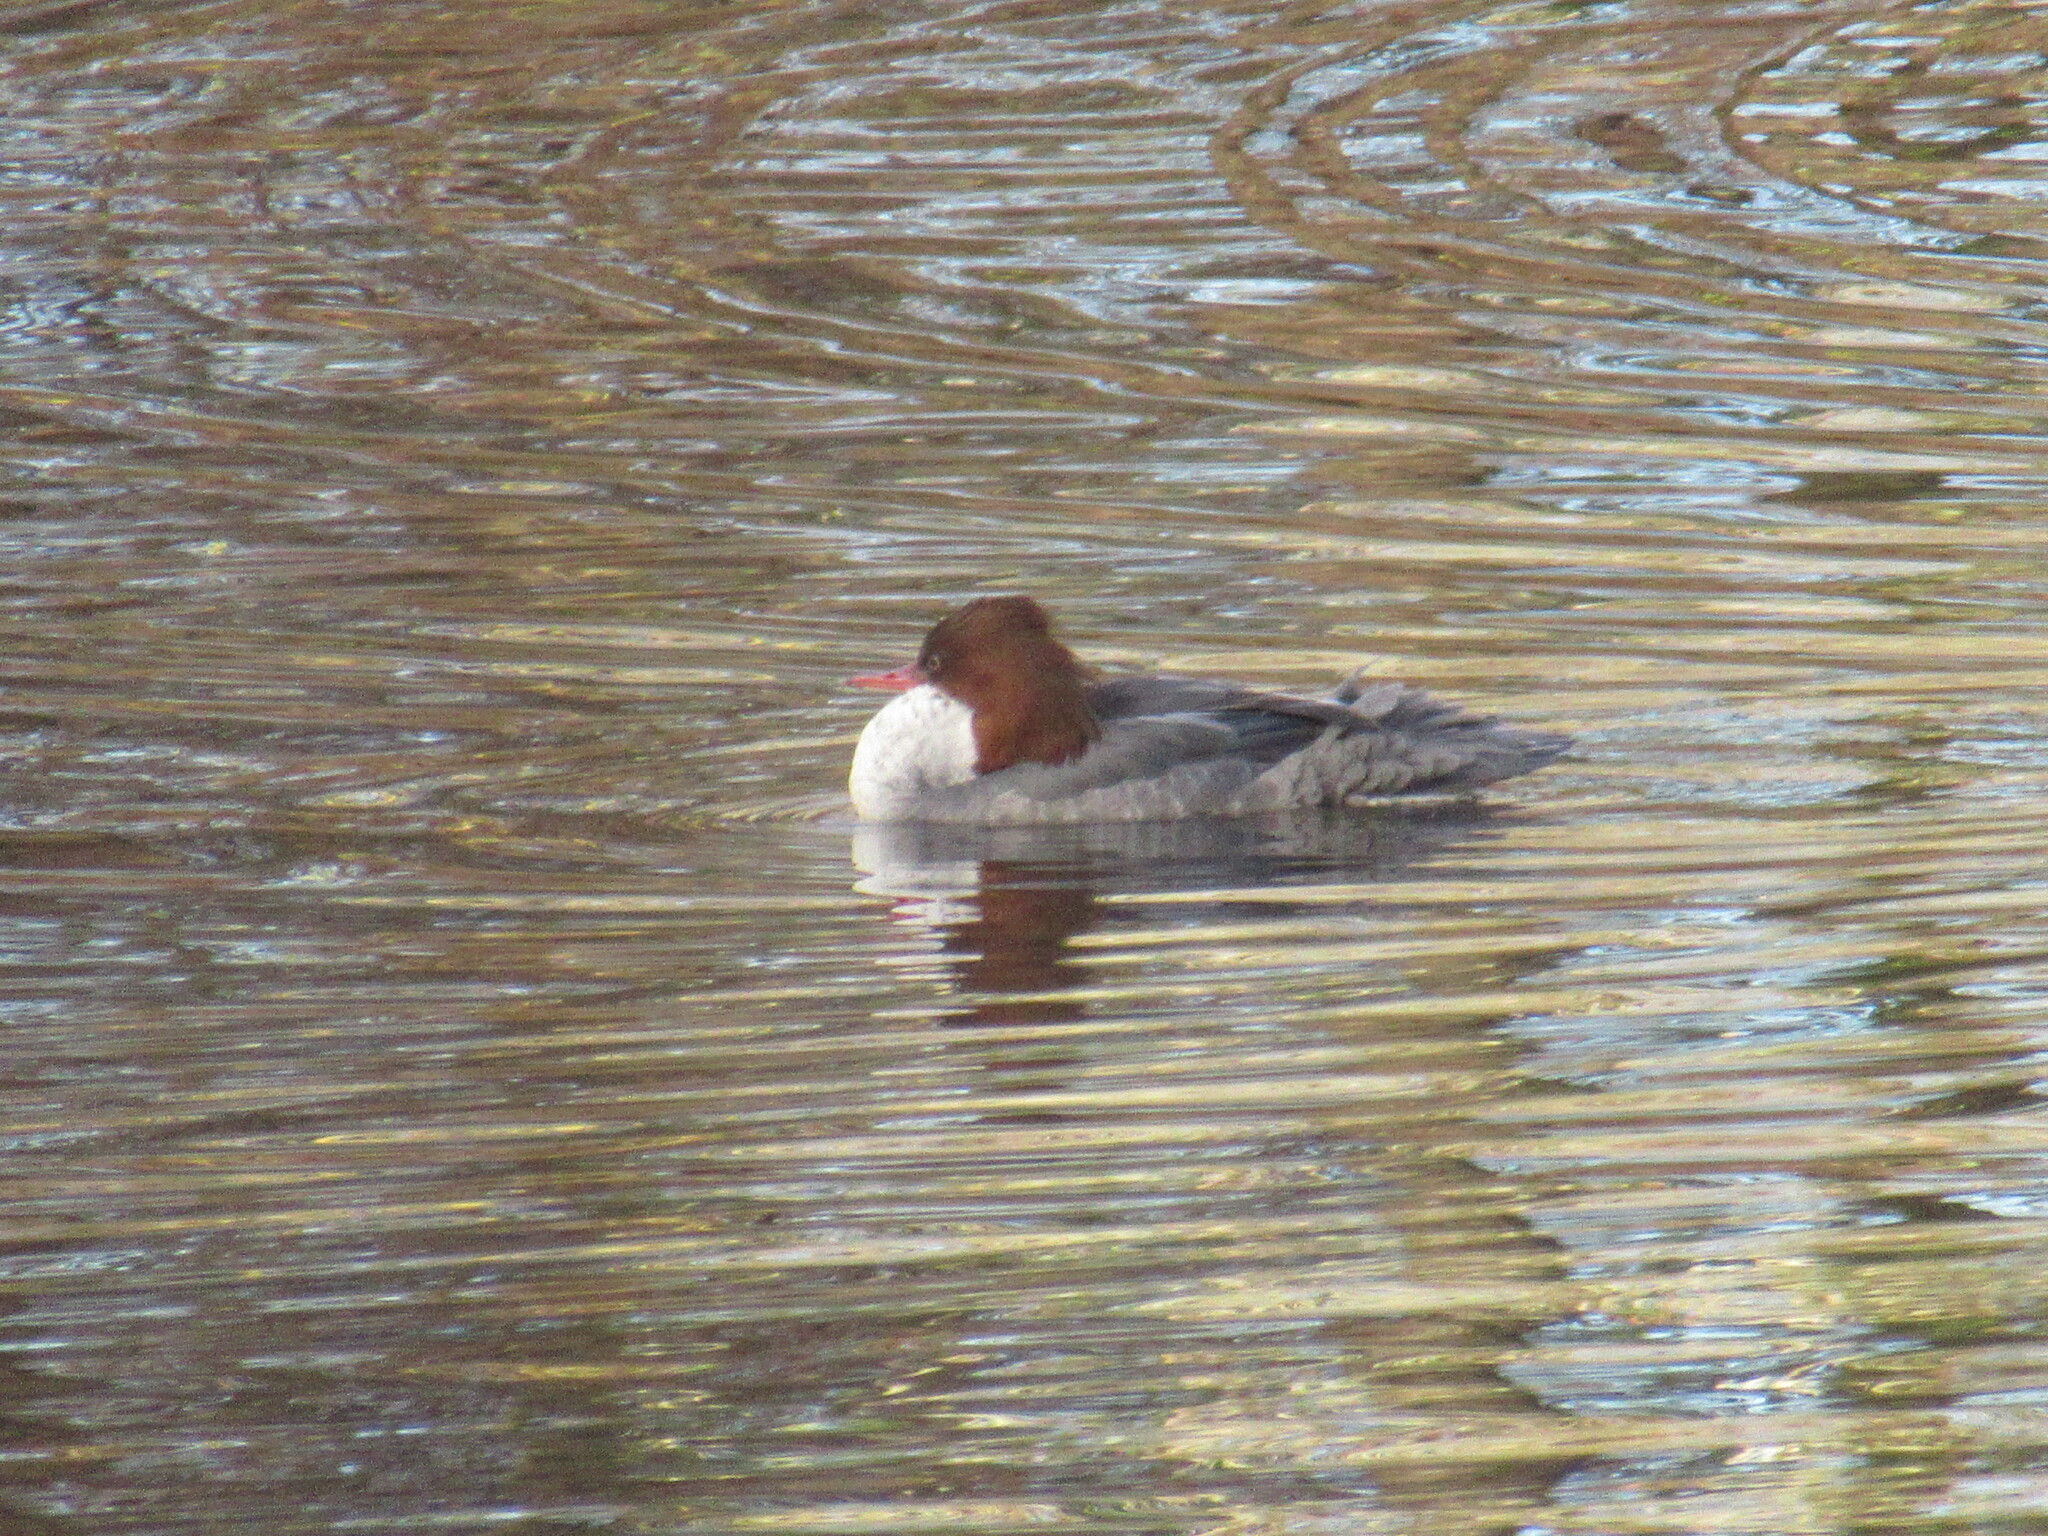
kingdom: Animalia
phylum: Chordata
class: Aves
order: Anseriformes
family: Anatidae
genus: Mergus
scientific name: Mergus merganser
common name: Common merganser
